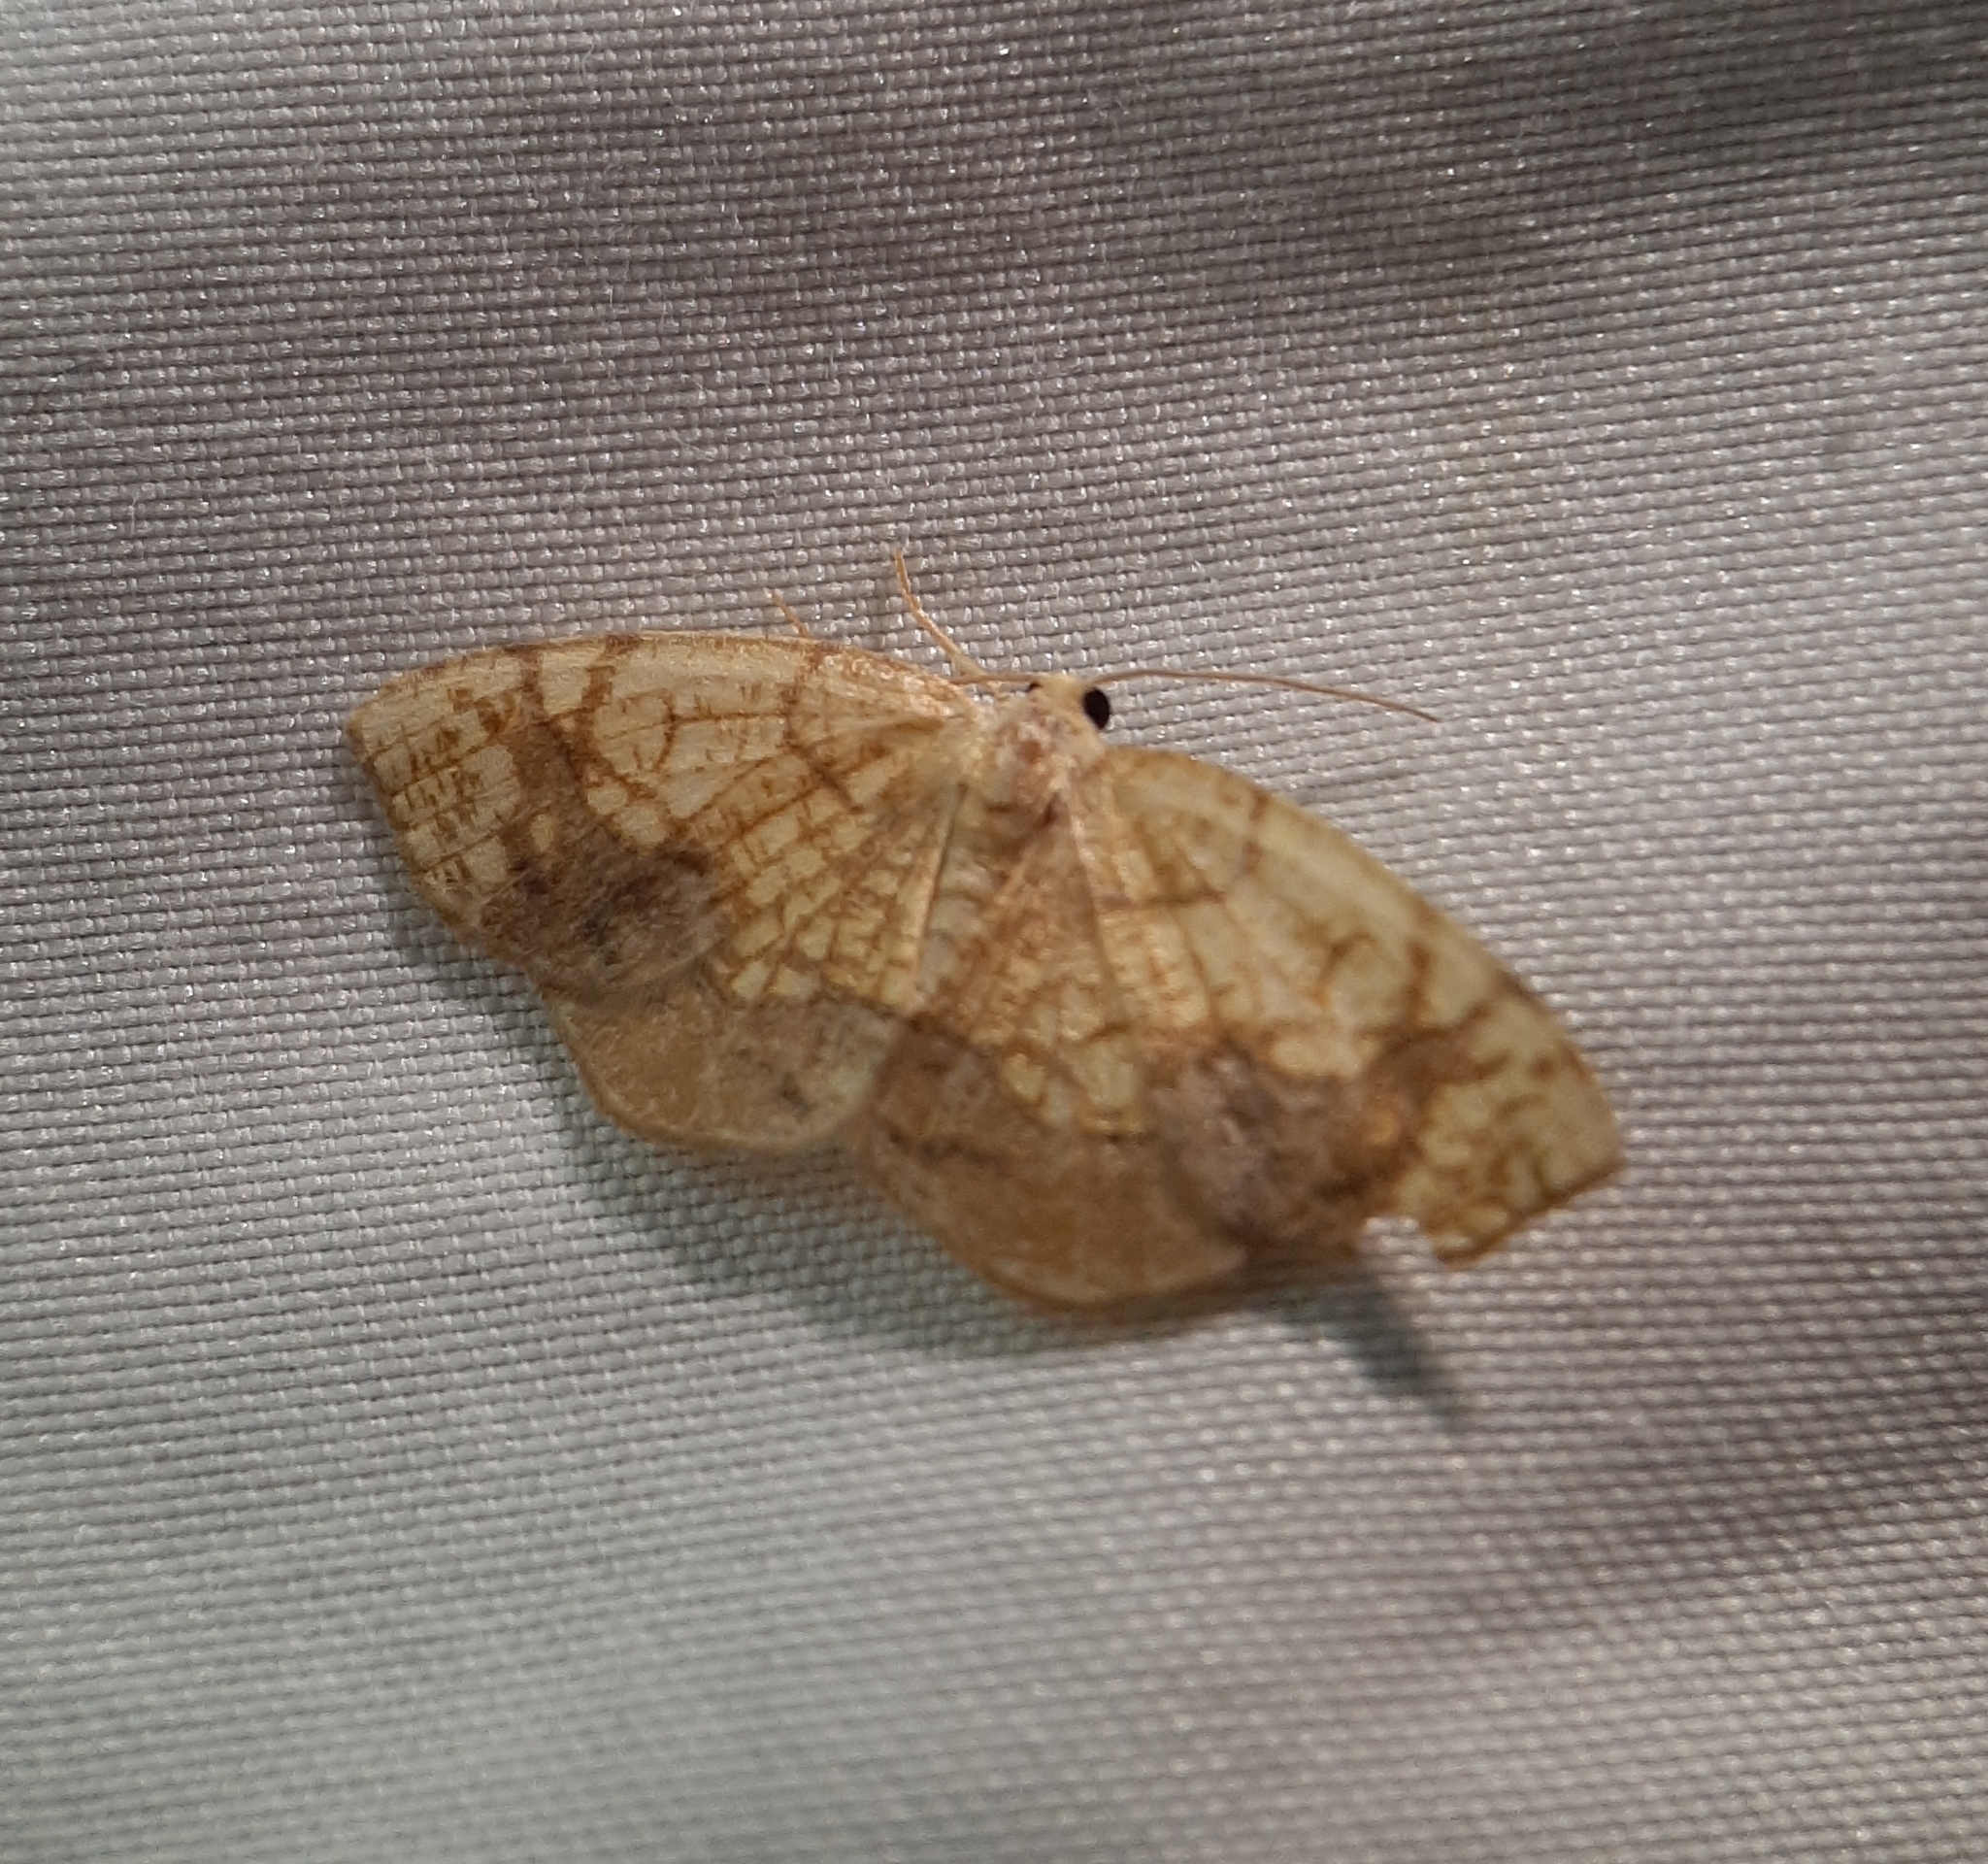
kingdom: Animalia
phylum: Arthropoda
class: Insecta
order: Lepidoptera
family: Geometridae
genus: Nematocampa
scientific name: Nematocampa resistaria
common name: Horned spanworm moth
